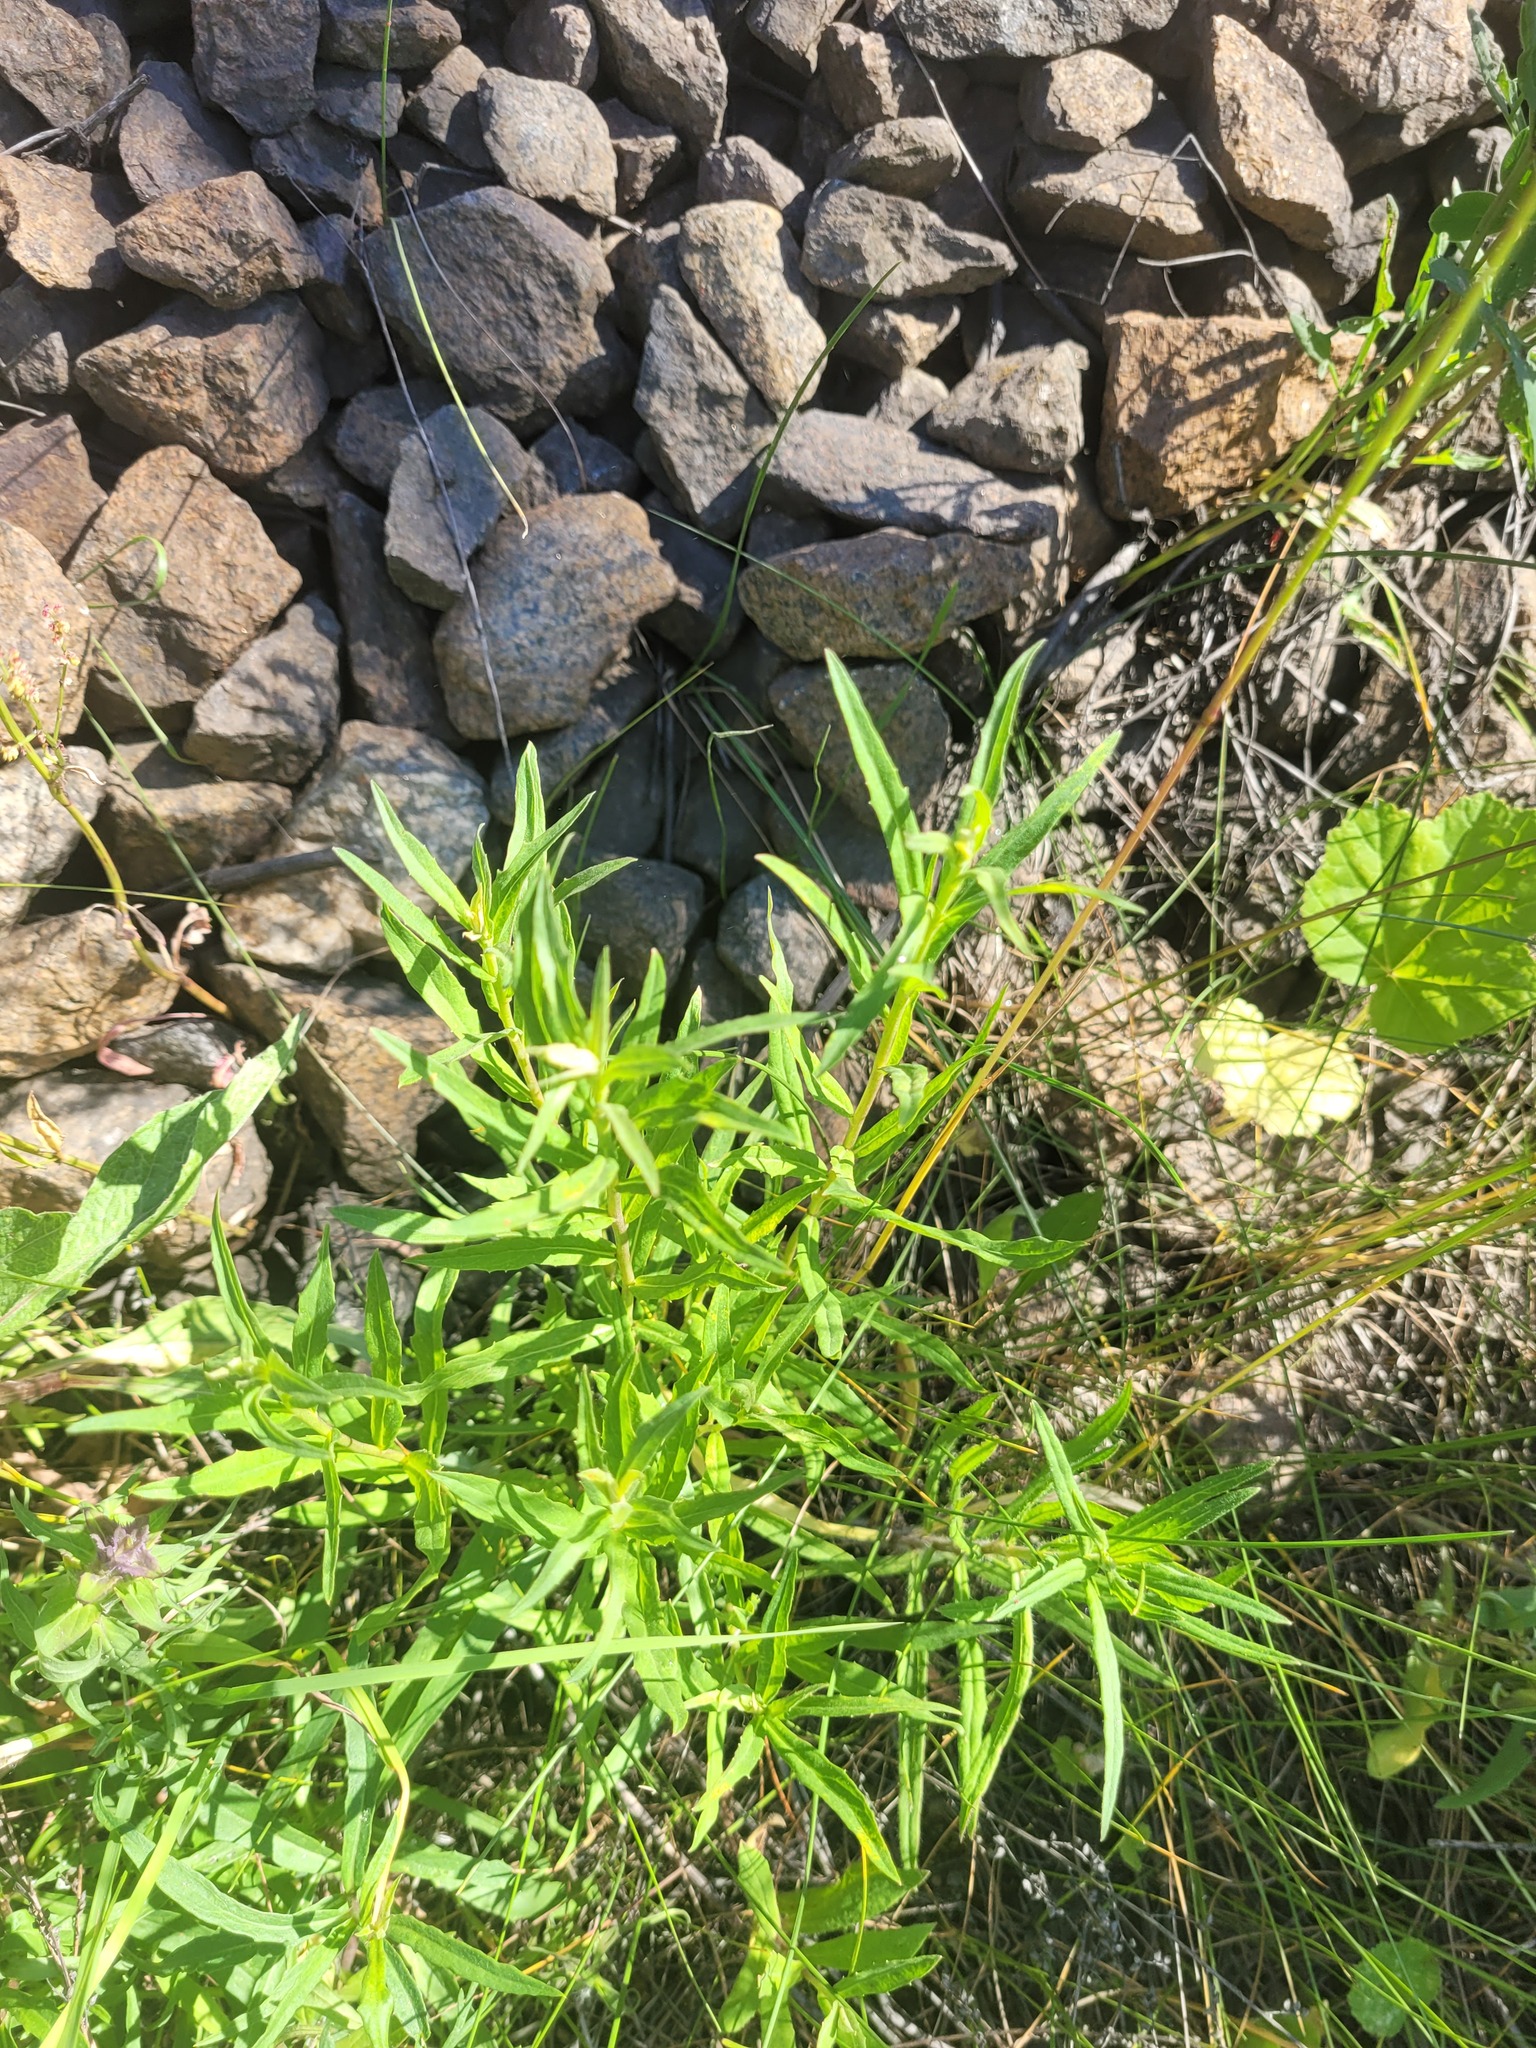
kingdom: Plantae
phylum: Tracheophyta
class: Magnoliopsida
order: Asterales
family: Asteraceae
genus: Hieracium
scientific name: Hieracium umbellatum
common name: Northern hawkweed
